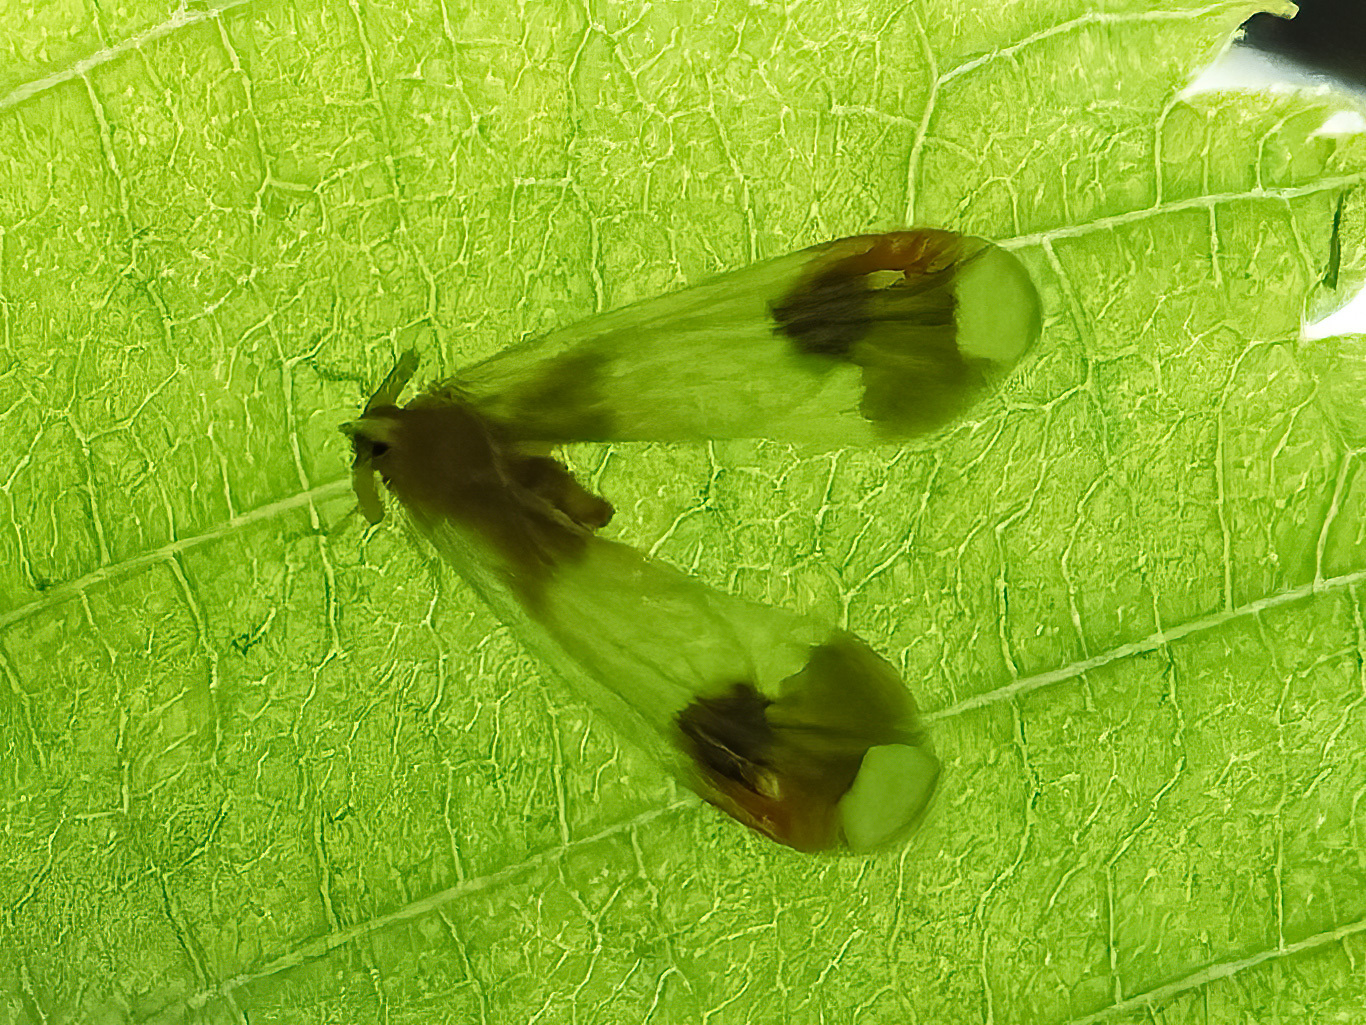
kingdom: Animalia
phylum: Arthropoda
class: Insecta
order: Hemiptera
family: Derbidae
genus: Anotia
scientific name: Anotia uhleri
